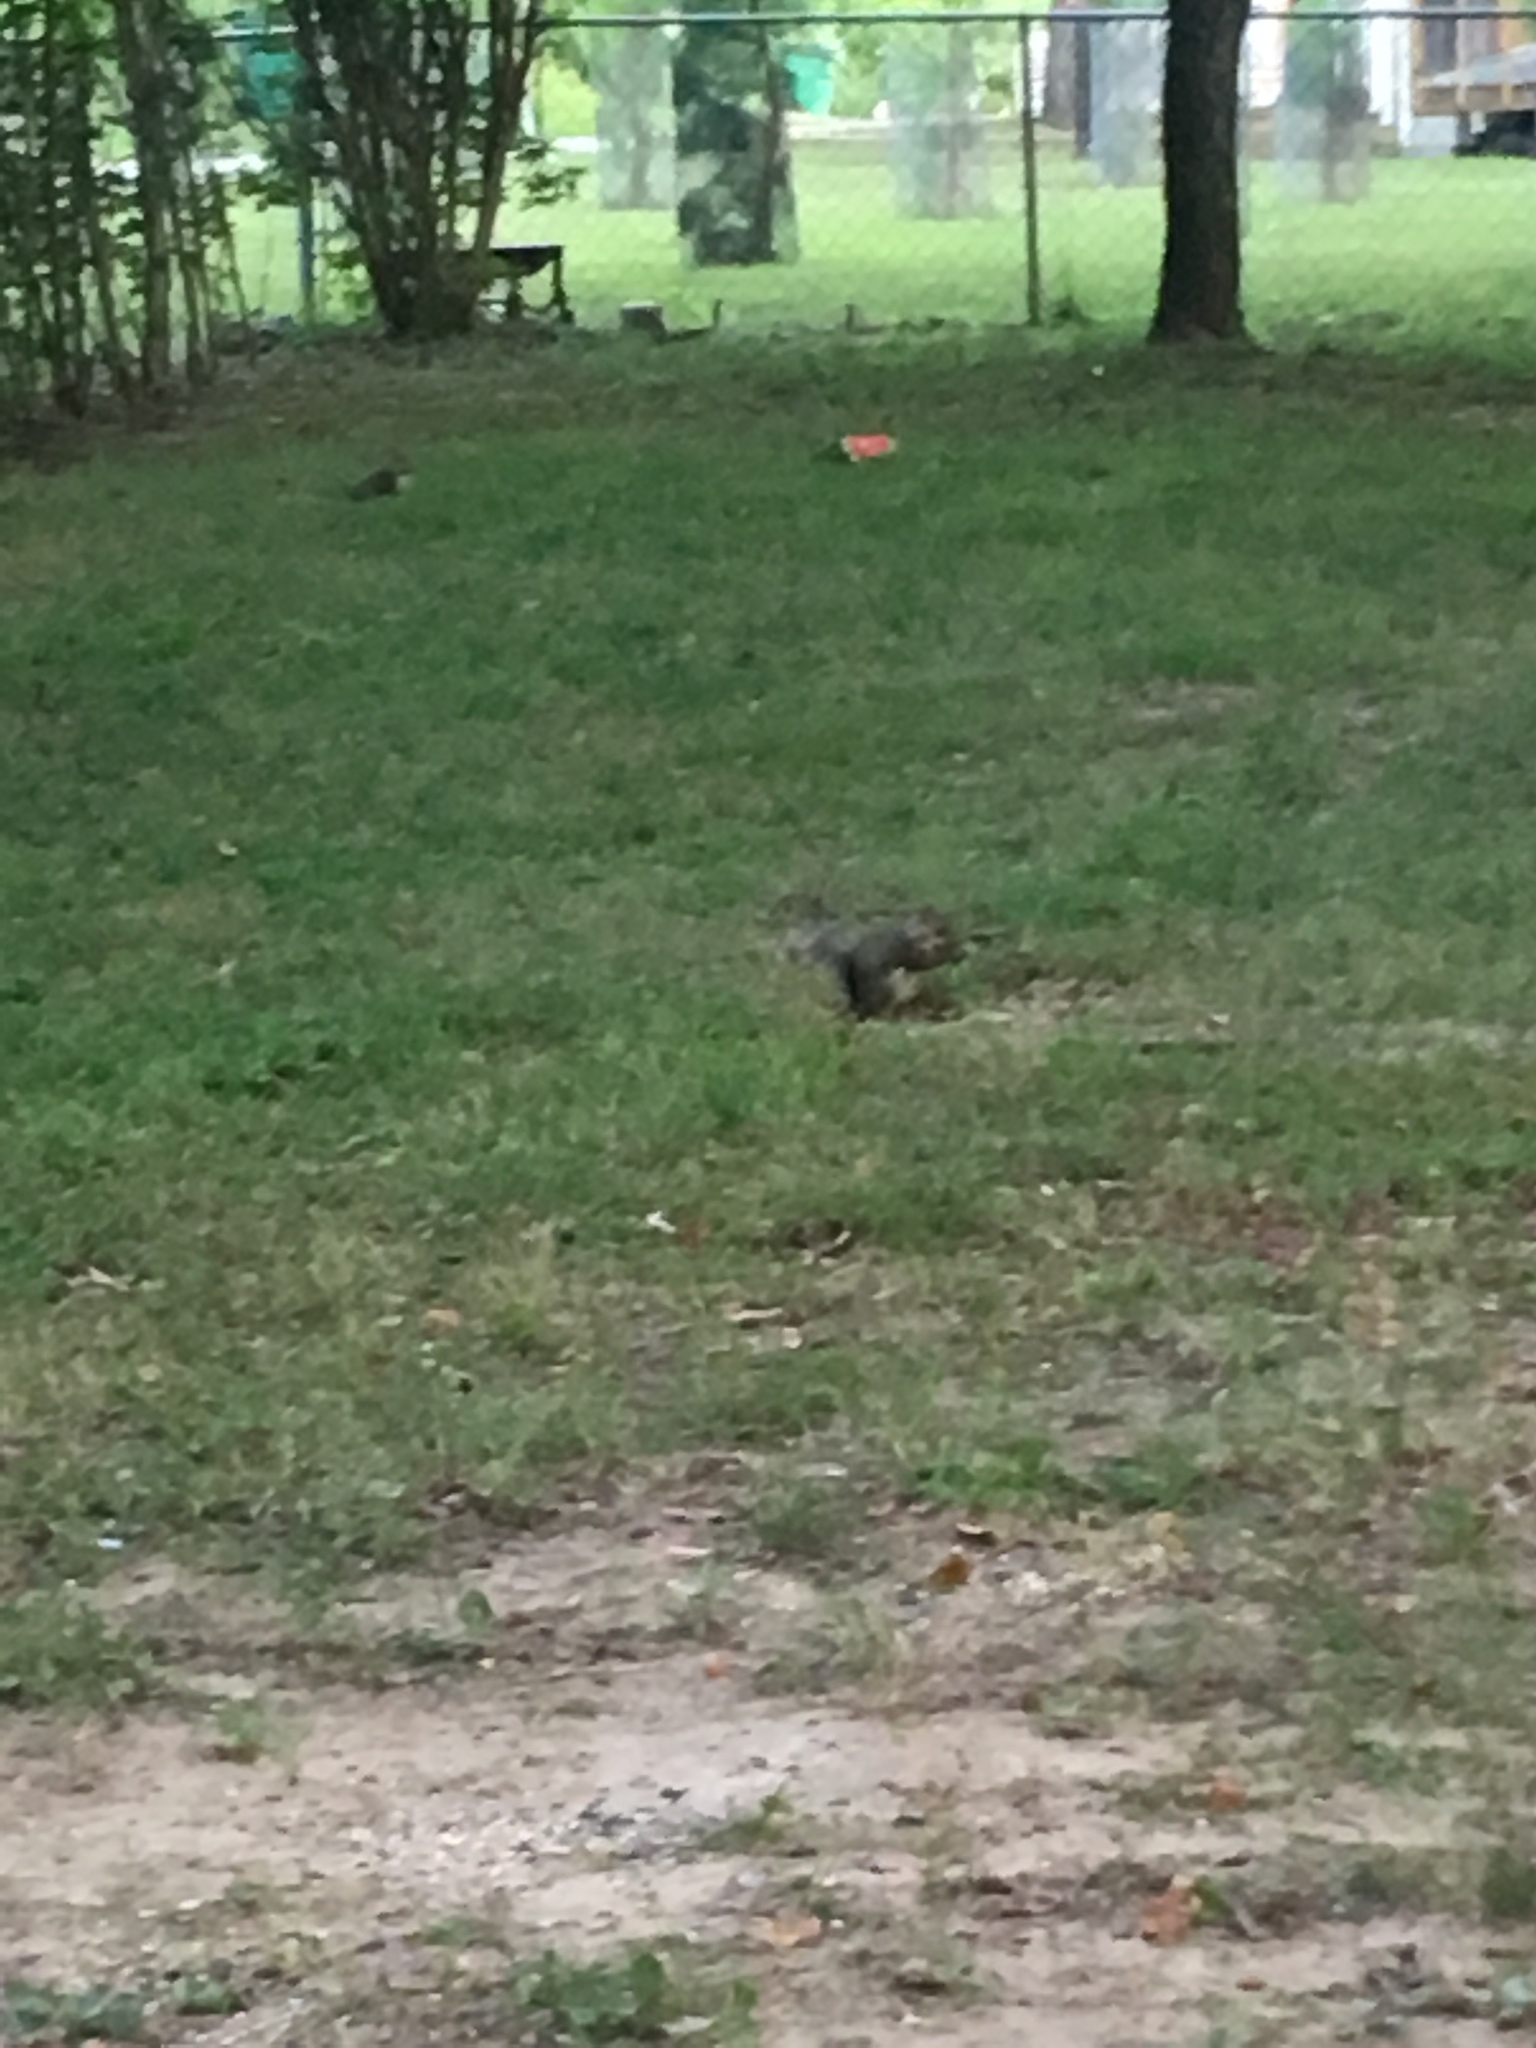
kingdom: Animalia
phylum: Chordata
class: Mammalia
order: Rodentia
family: Sciuridae
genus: Sciurus
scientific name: Sciurus carolinensis
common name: Eastern gray squirrel
